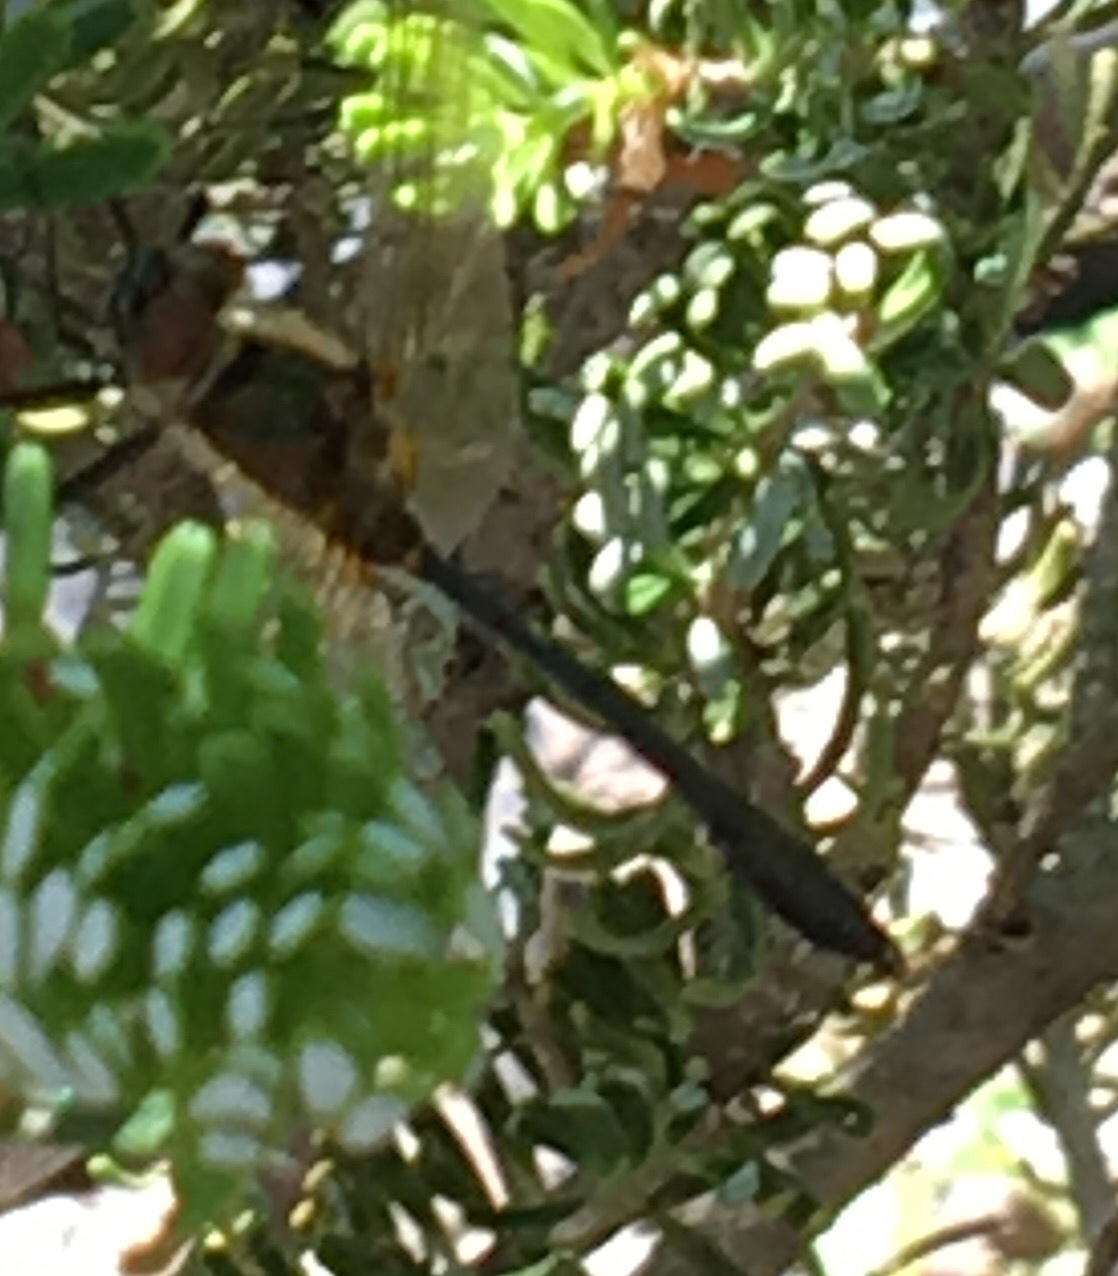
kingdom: Animalia
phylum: Arthropoda
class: Insecta
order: Odonata
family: Corduliidae
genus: Dorocordulia
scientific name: Dorocordulia libera
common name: Racket-tailed emerald
